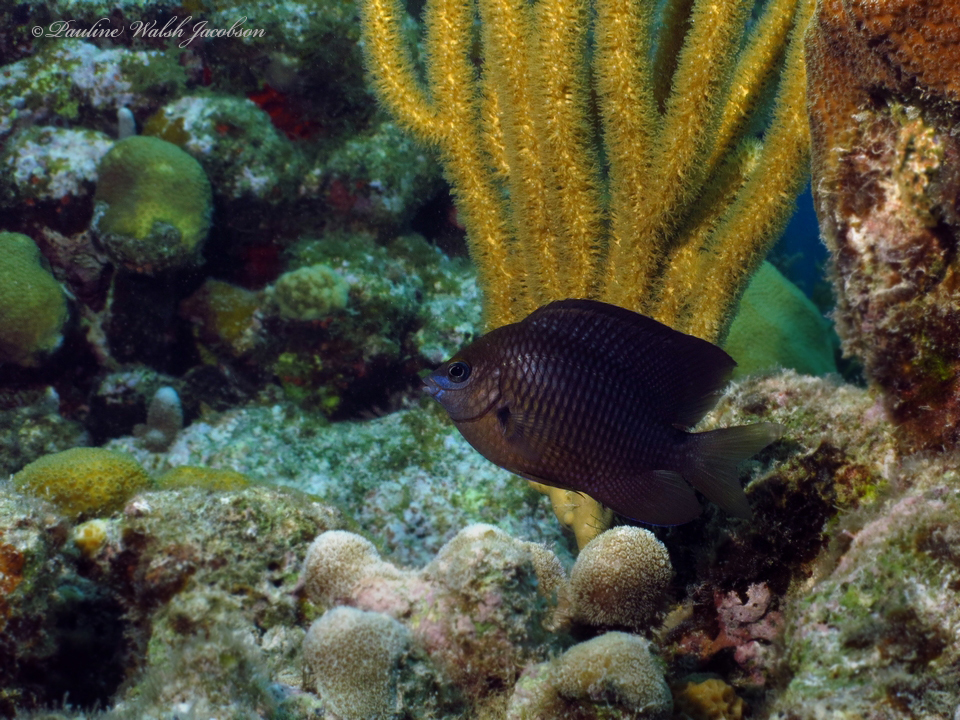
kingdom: Animalia
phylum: Chordata
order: Perciformes
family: Pomacentridae
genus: Stegastes
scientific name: Stegastes diencaeus
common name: Longfin damselfish
